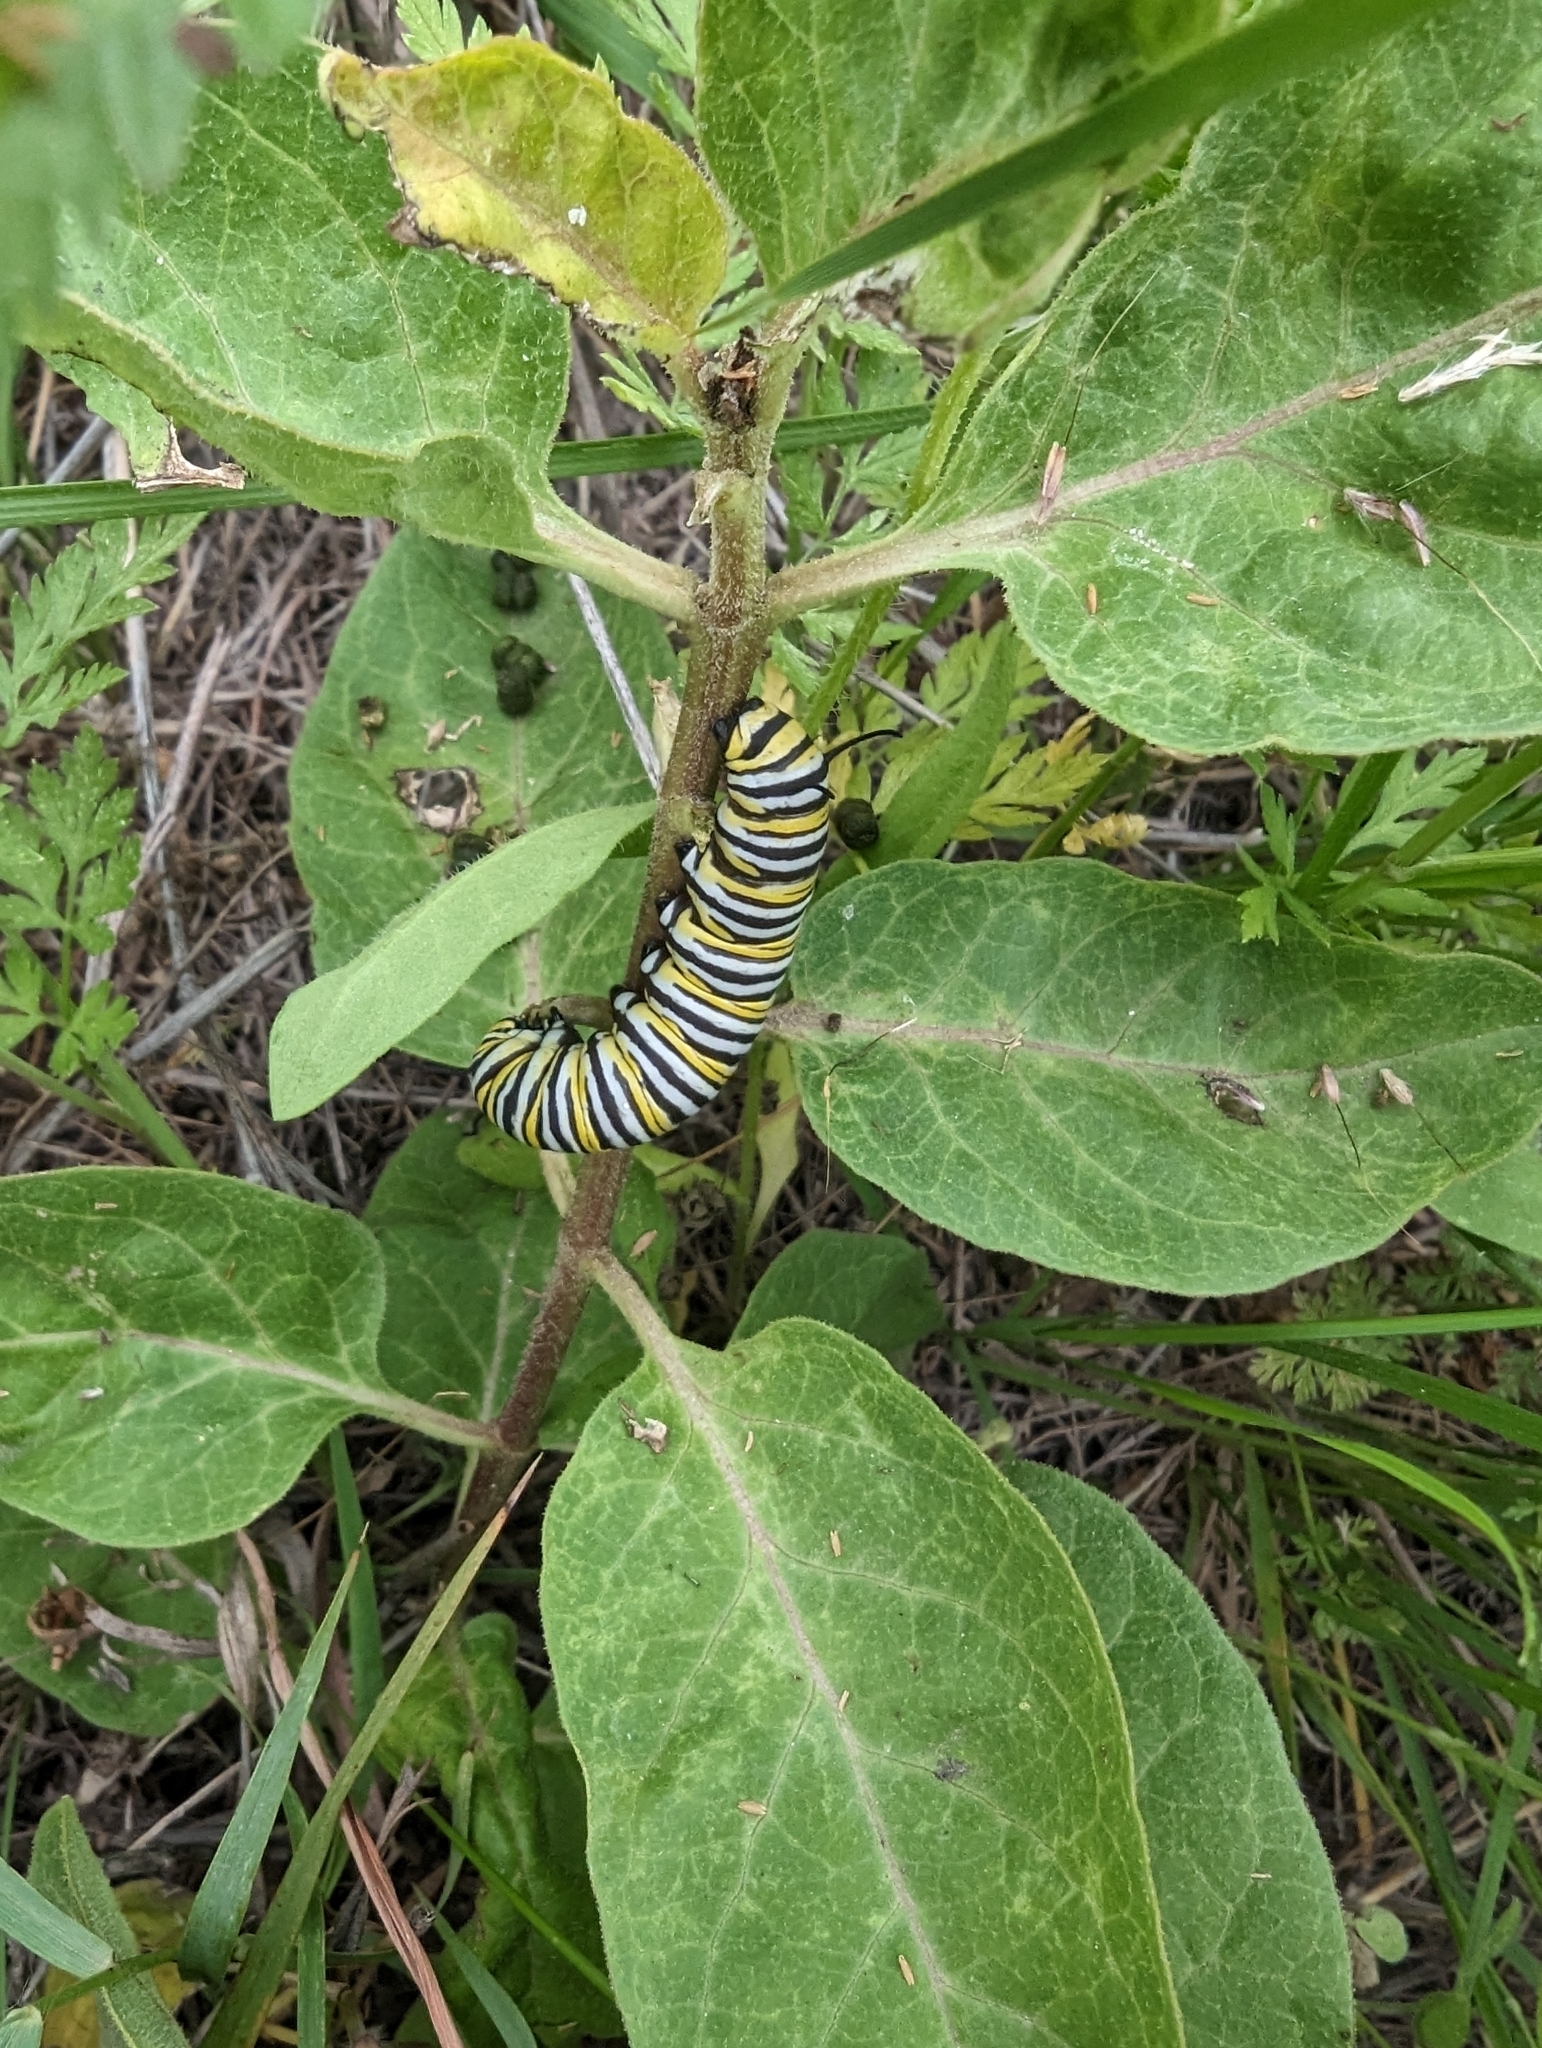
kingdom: Animalia
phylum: Arthropoda
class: Insecta
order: Lepidoptera
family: Nymphalidae
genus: Danaus
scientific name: Danaus plexippus
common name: Monarch
